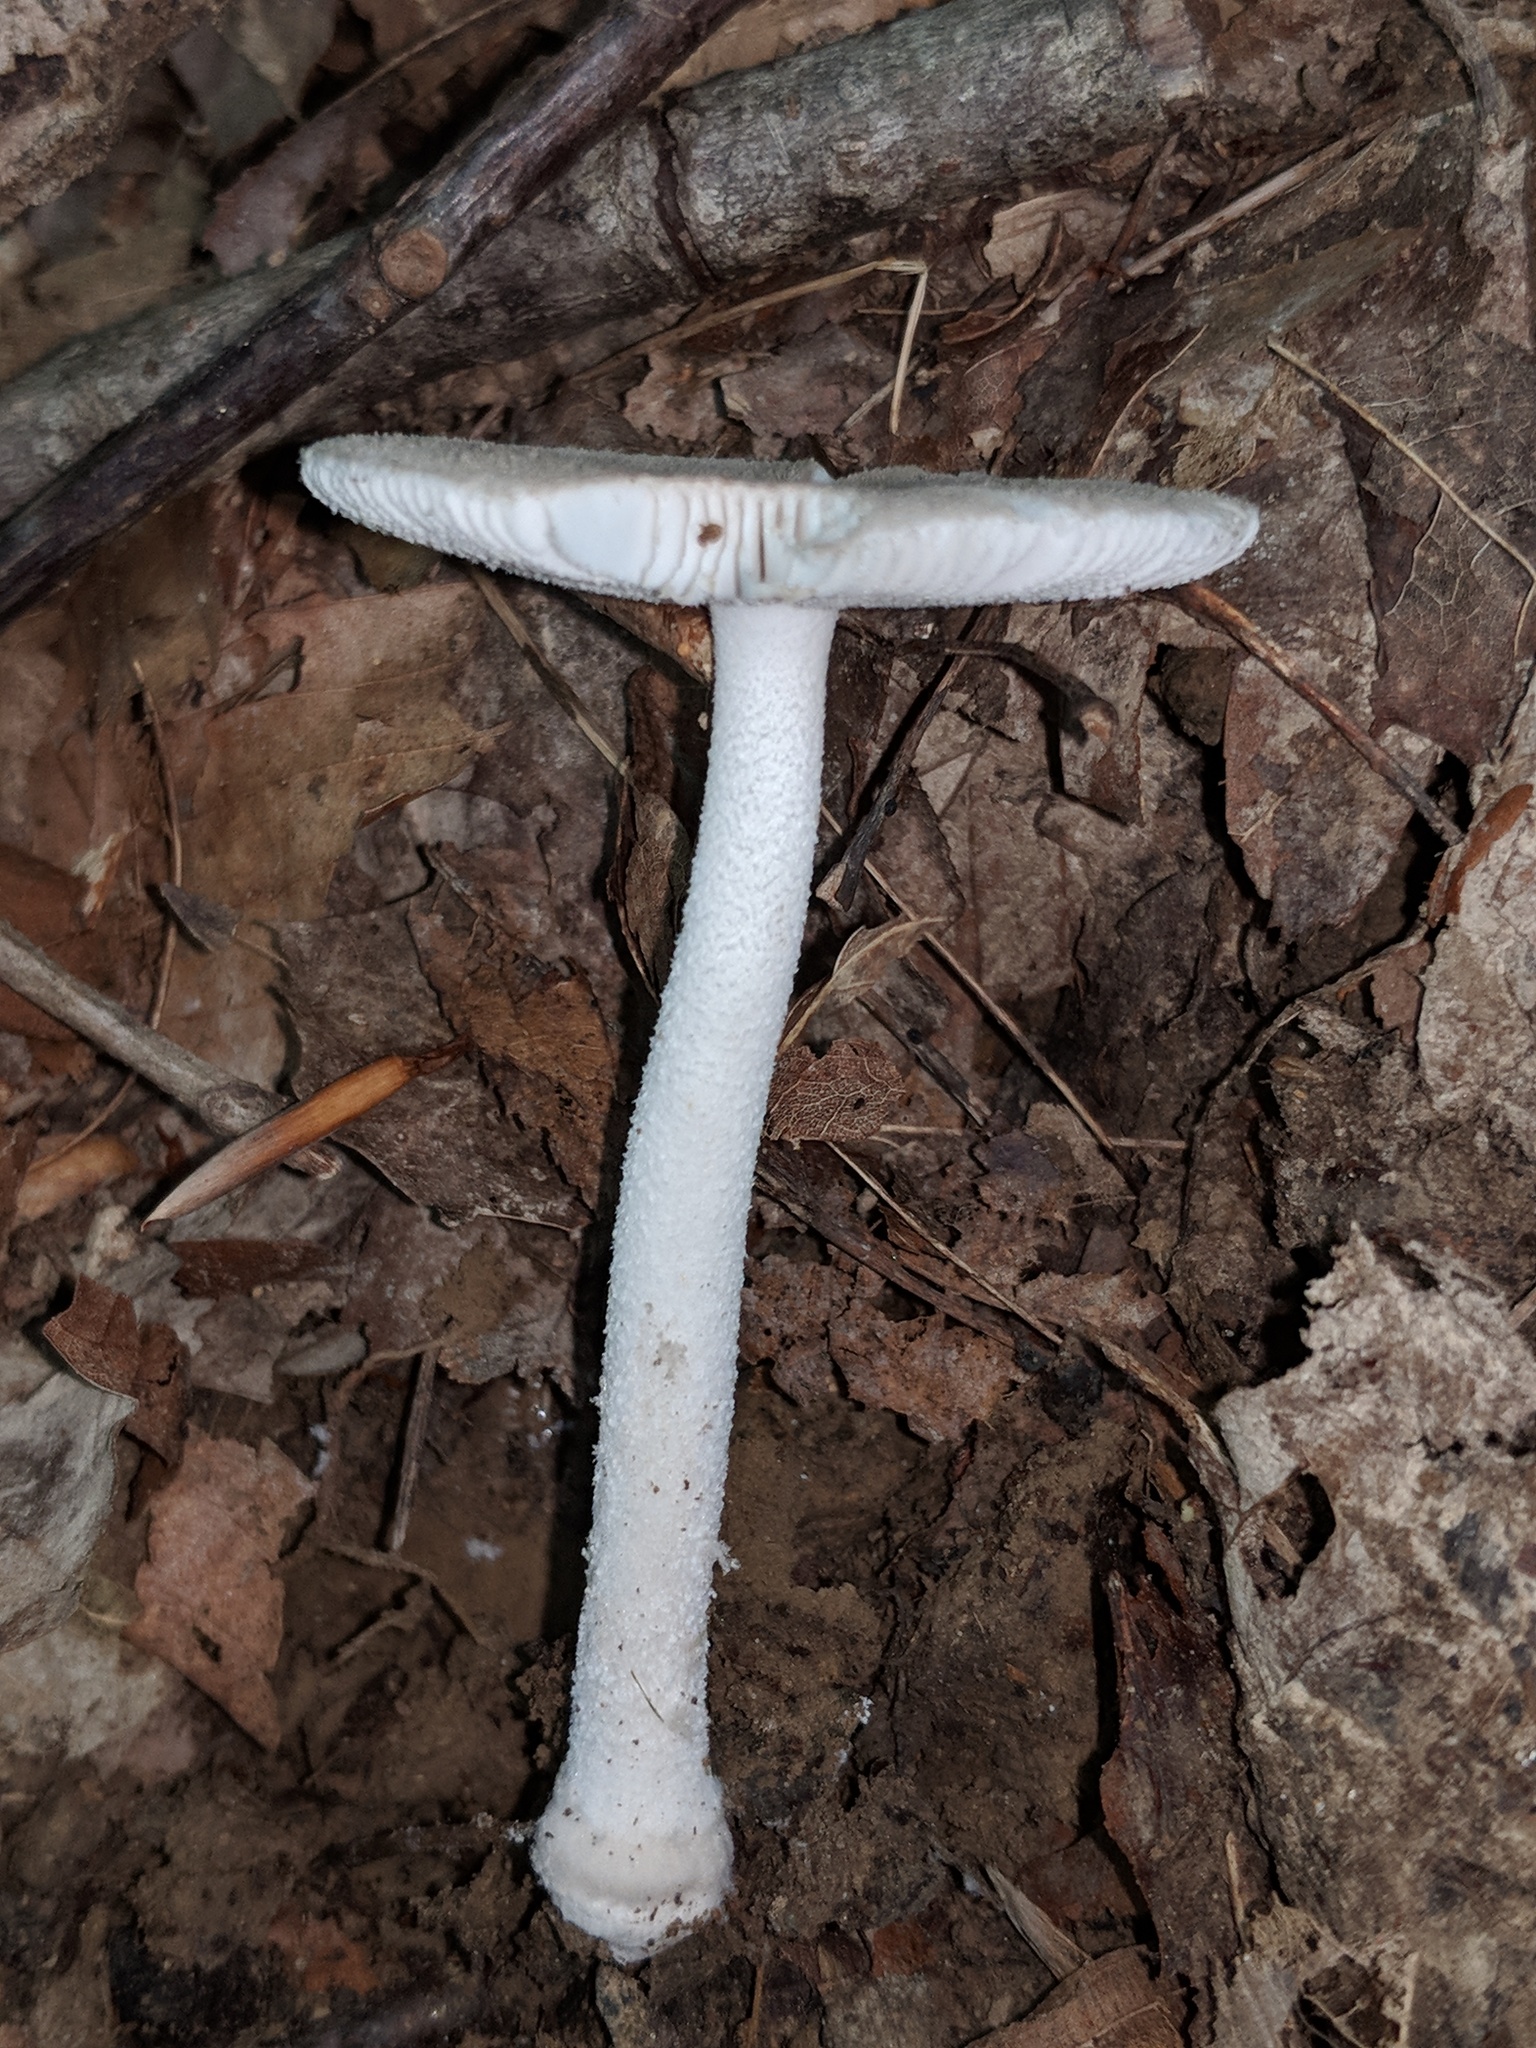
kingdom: Fungi
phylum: Basidiomycota
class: Agaricomycetes
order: Agaricales
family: Amanitaceae
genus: Amanita
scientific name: Amanita farinosa
